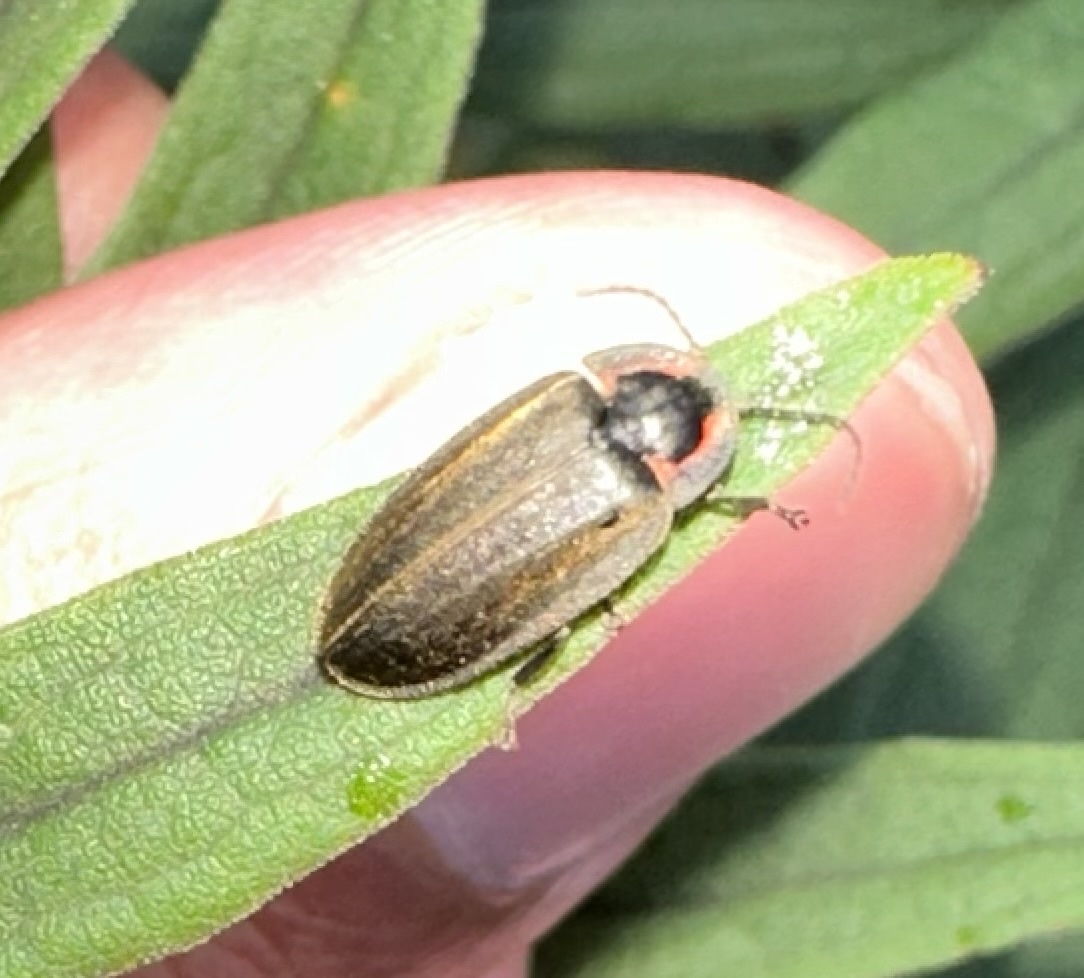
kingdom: Animalia
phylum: Arthropoda
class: Insecta
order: Coleoptera
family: Lampyridae
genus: Photinus
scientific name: Photinus corrusca
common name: Winter firefly
